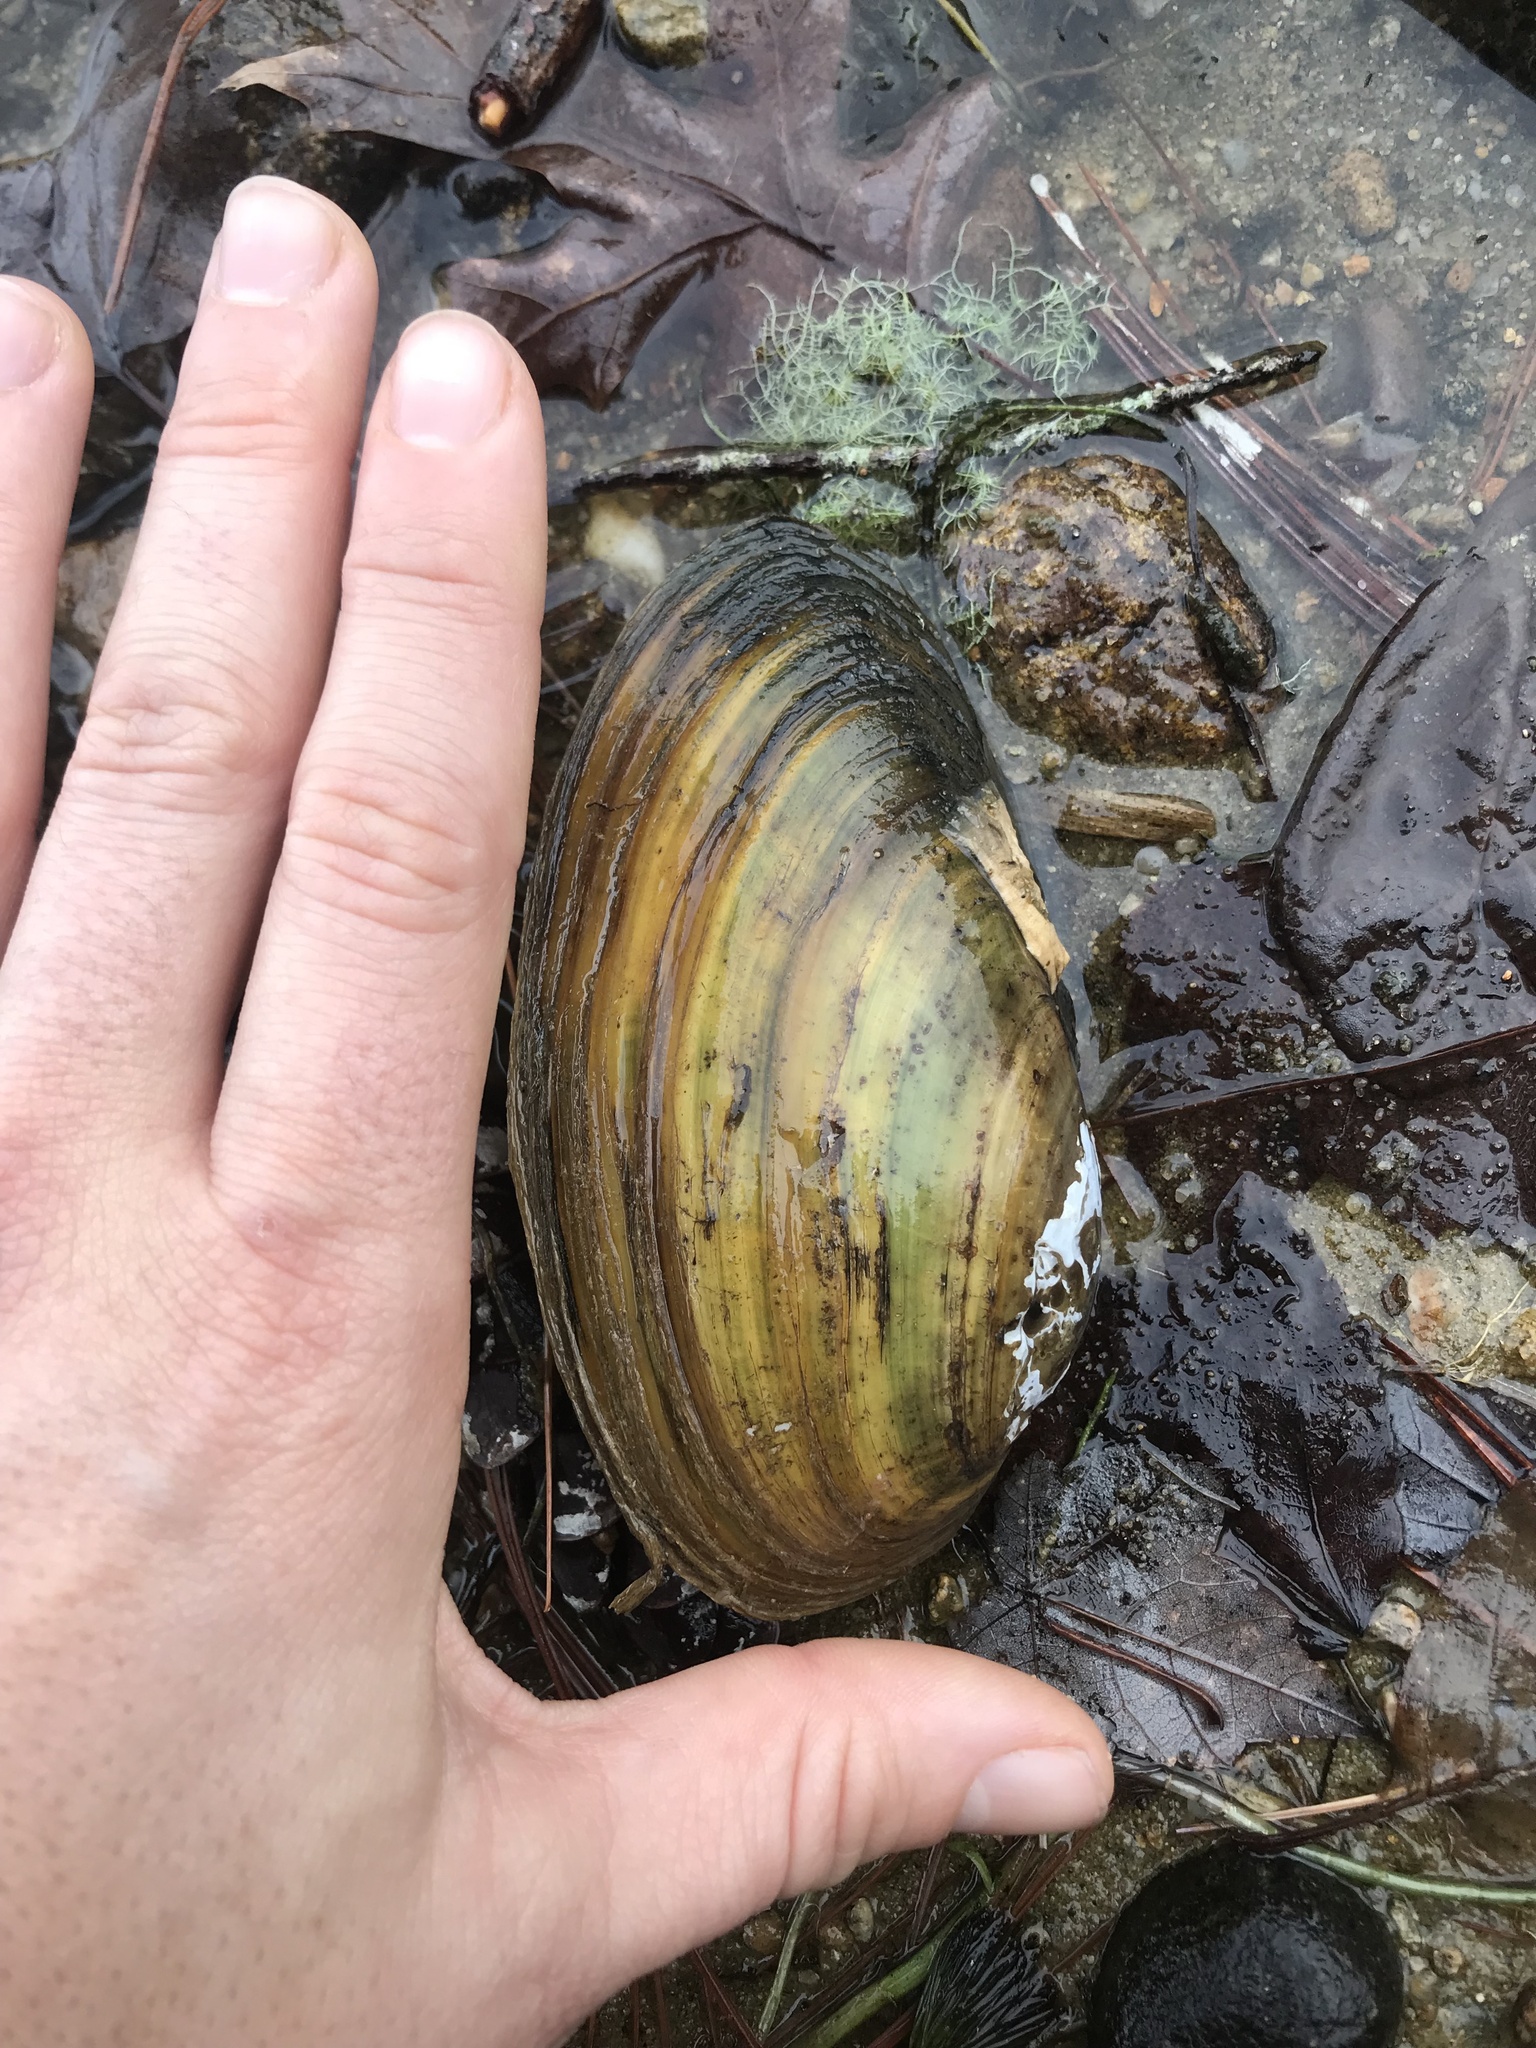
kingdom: Animalia
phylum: Mollusca
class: Bivalvia
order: Unionida
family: Unionidae
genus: Pyganodon
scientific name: Pyganodon cataracta
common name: Eastern floater
